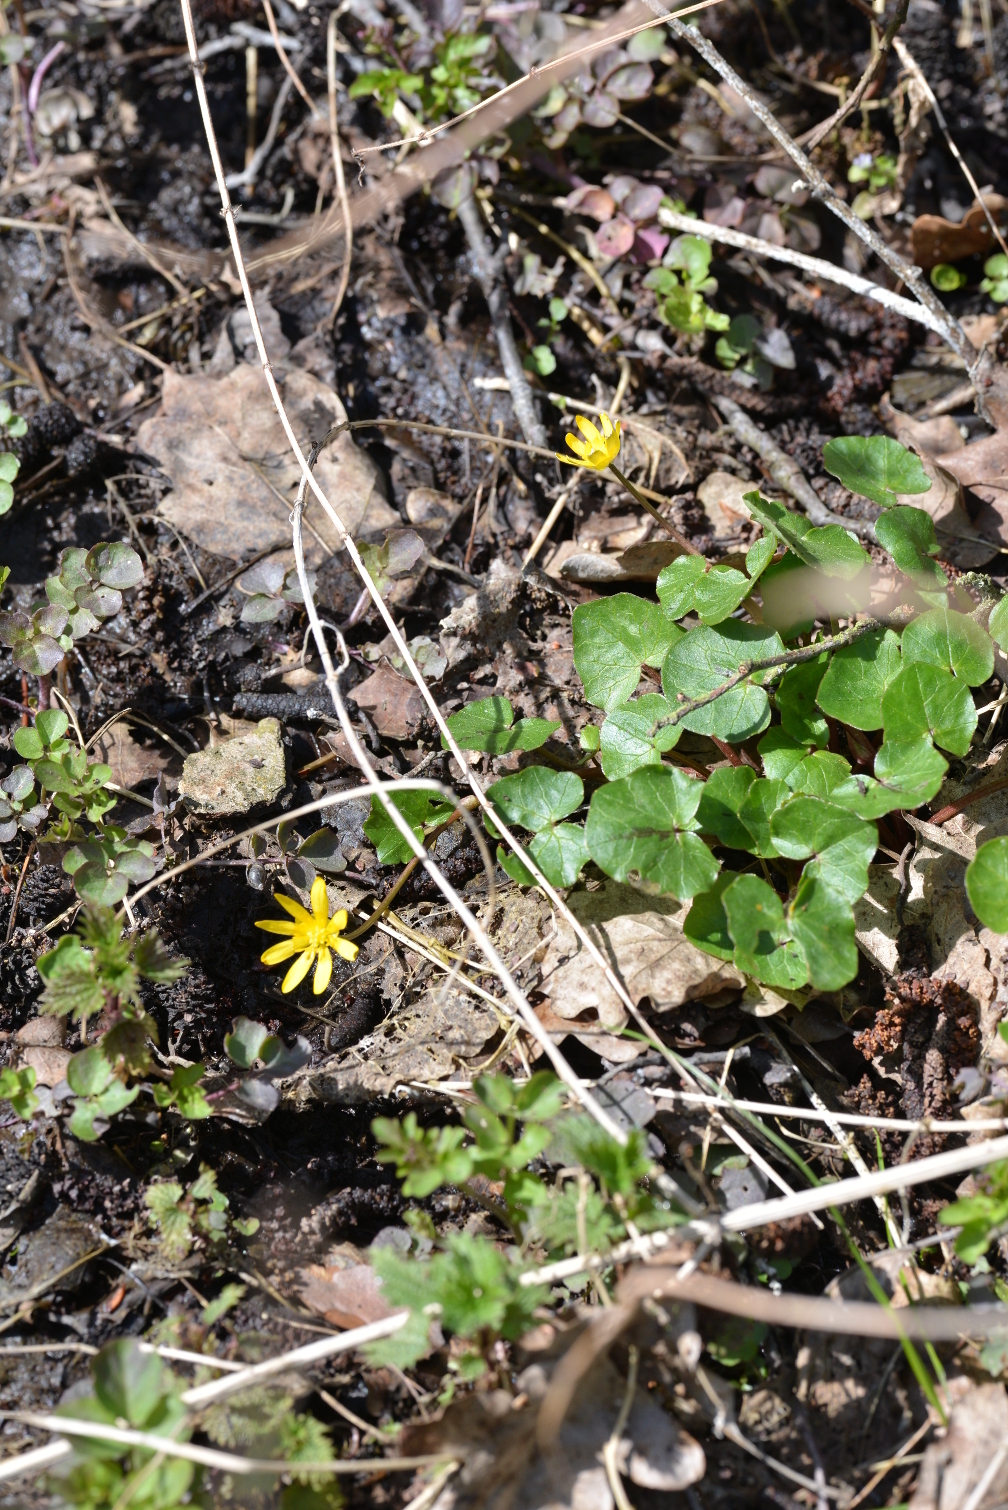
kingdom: Plantae
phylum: Tracheophyta
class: Magnoliopsida
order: Ranunculales
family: Ranunculaceae
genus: Ficaria
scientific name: Ficaria verna
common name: Lesser celandine
